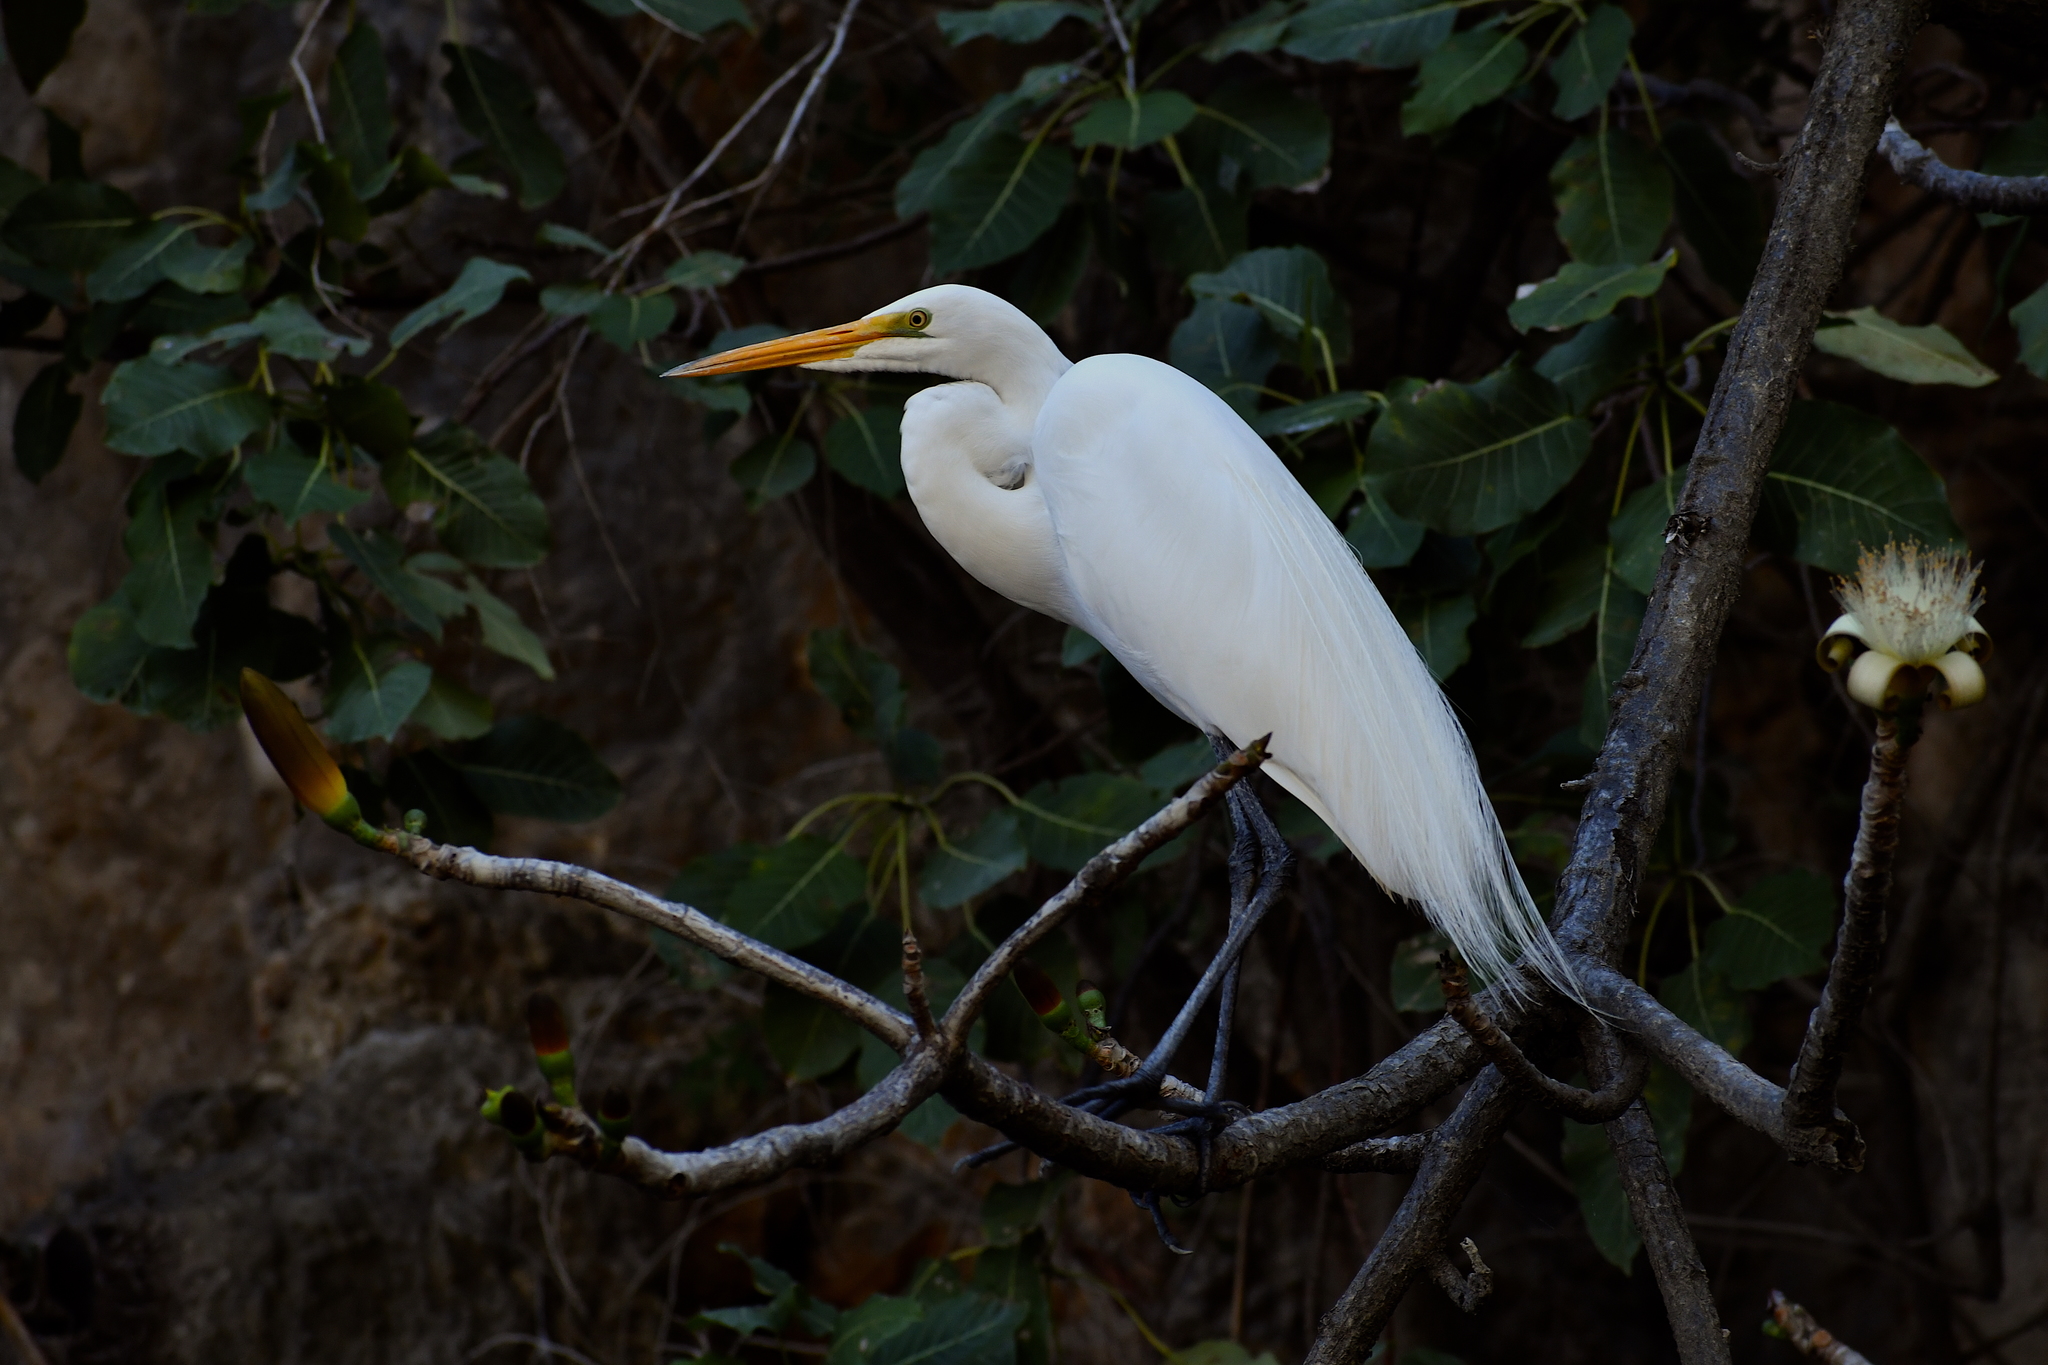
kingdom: Animalia
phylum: Chordata
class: Aves
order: Pelecaniformes
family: Ardeidae
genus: Ardea
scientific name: Ardea alba
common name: Great egret
